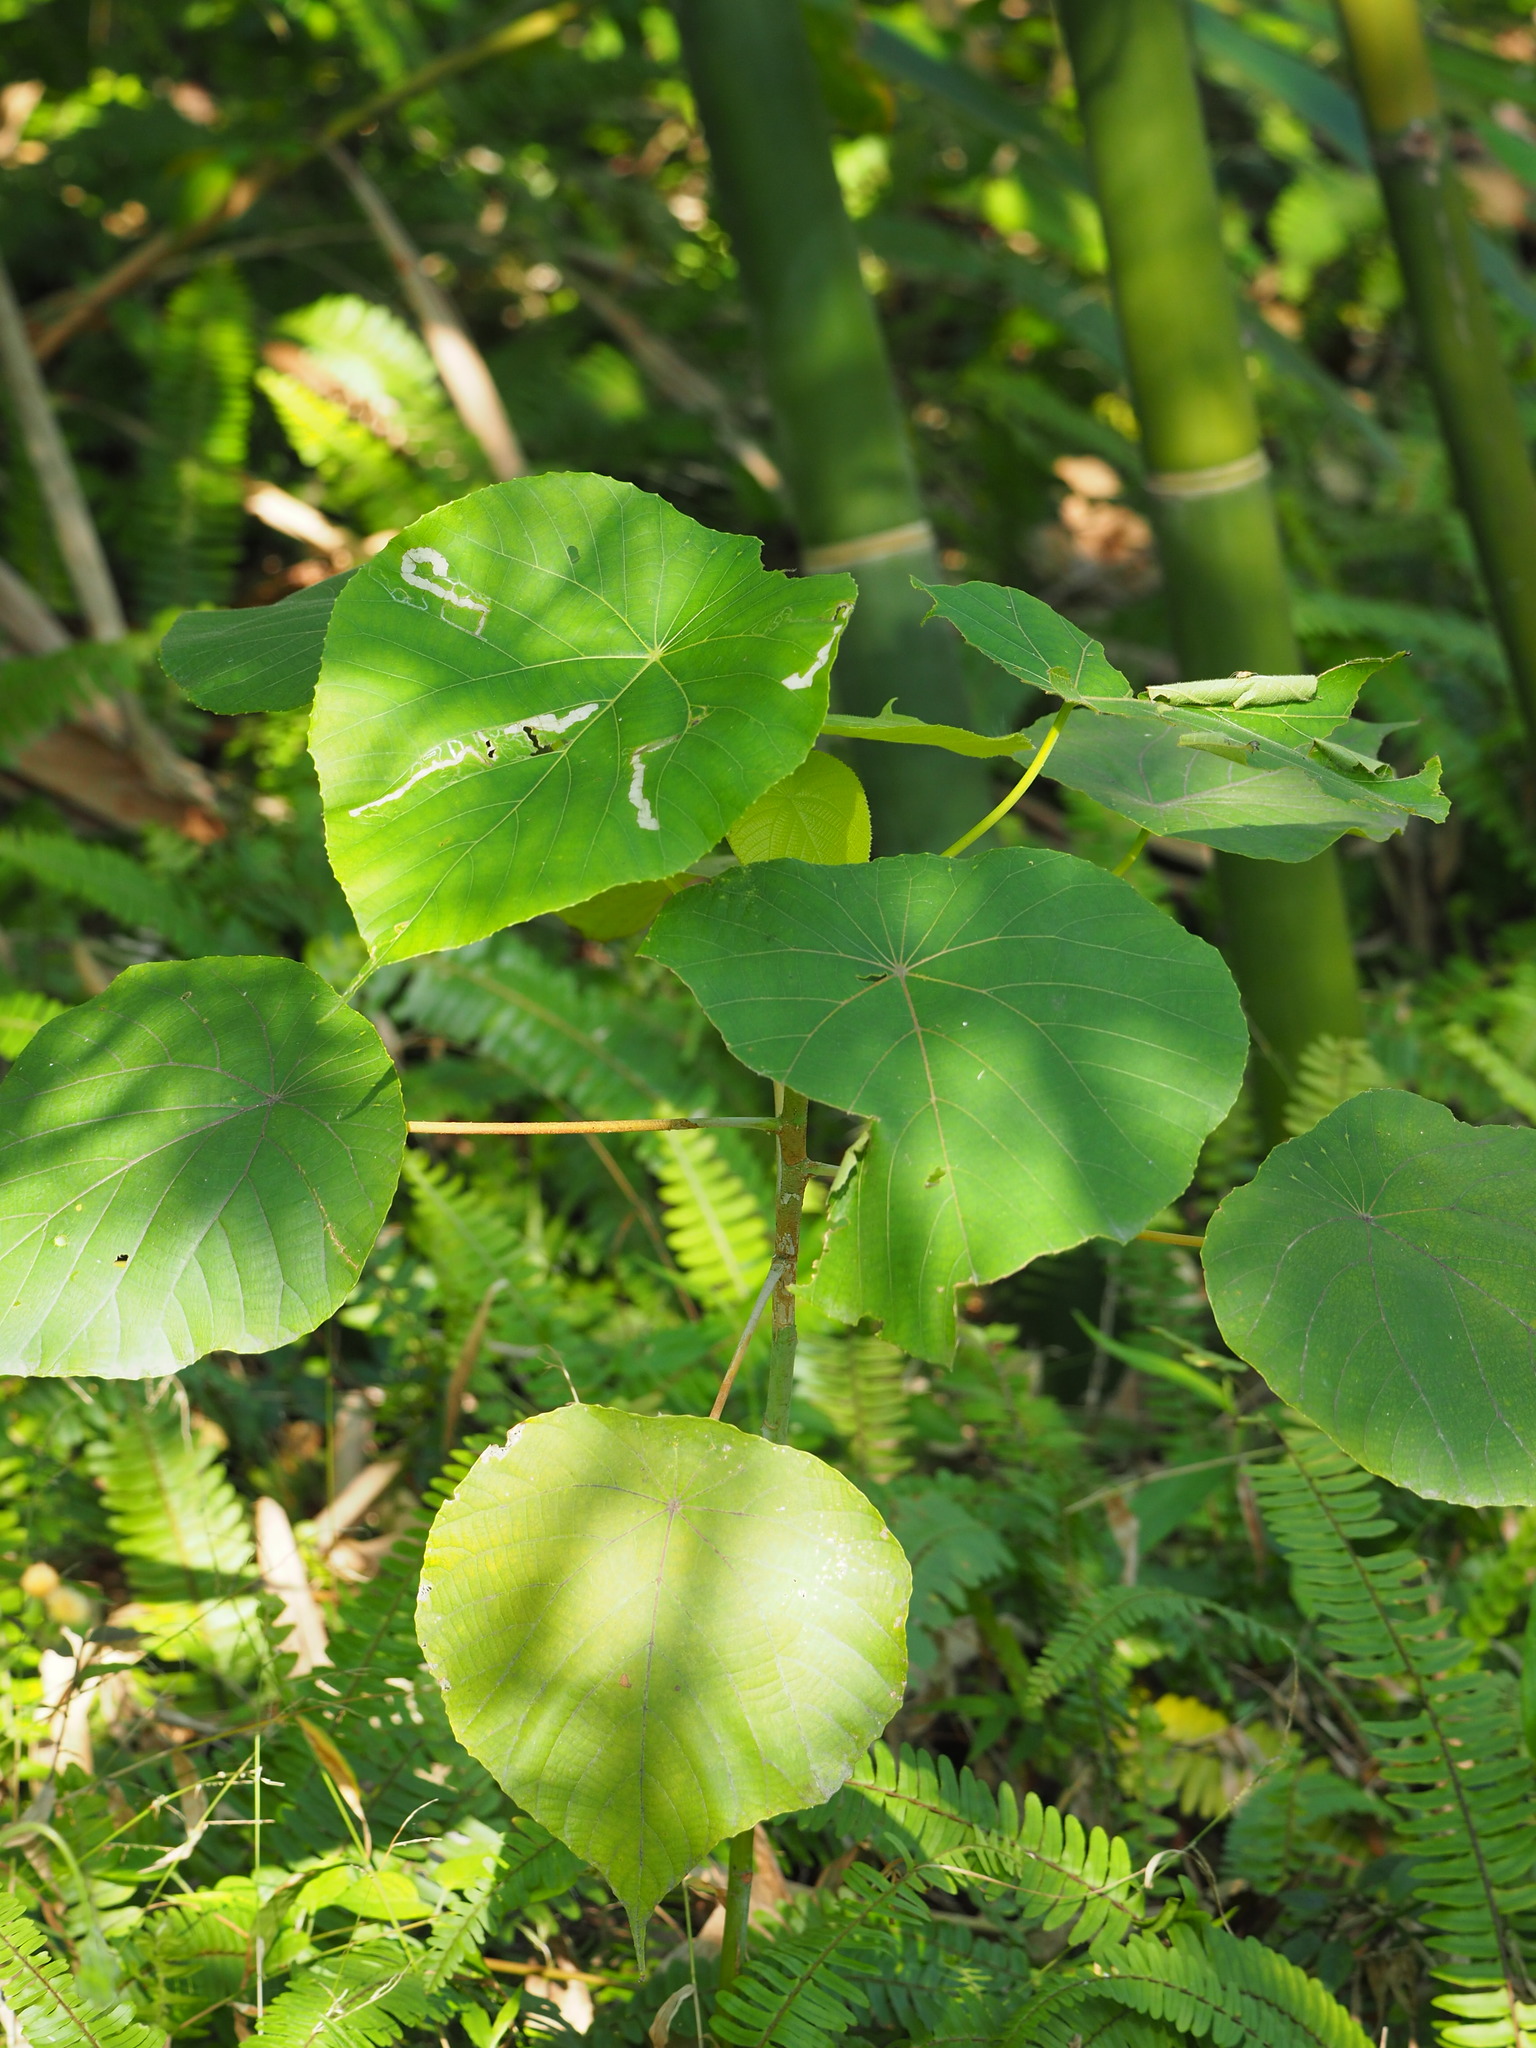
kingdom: Plantae
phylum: Tracheophyta
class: Magnoliopsida
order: Malpighiales
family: Euphorbiaceae
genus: Macaranga
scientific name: Macaranga tanarius
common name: Parasol leaf tree
